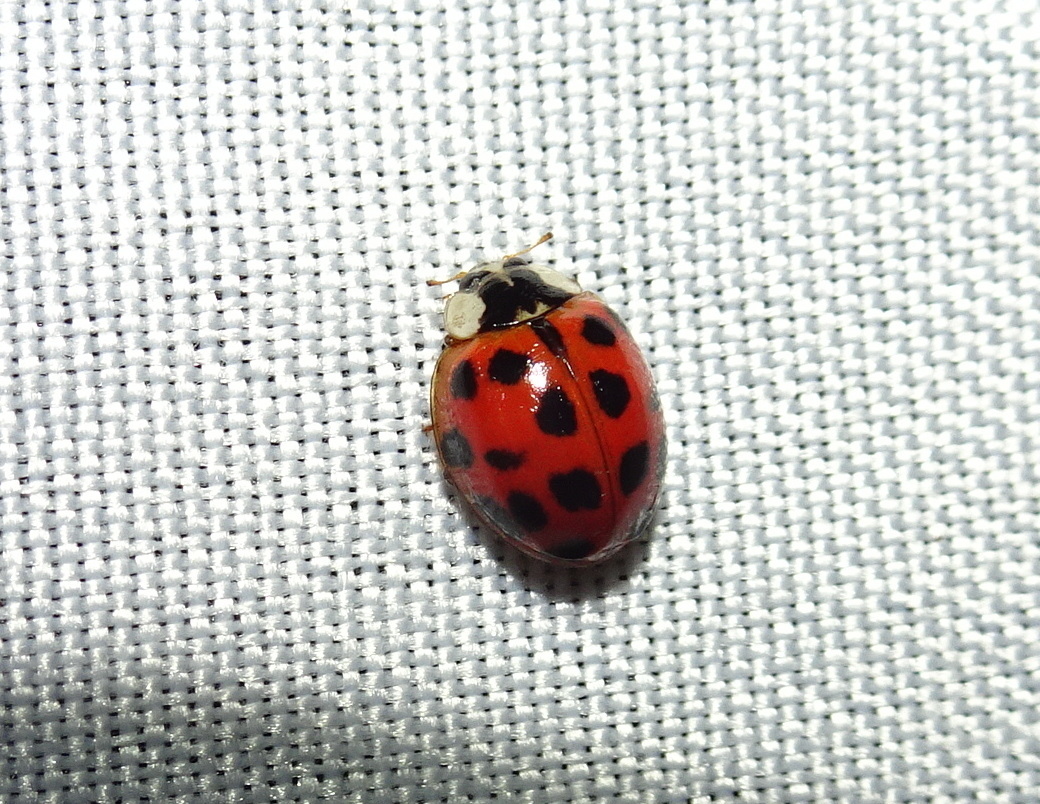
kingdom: Animalia
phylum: Arthropoda
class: Insecta
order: Coleoptera
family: Coccinellidae
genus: Harmonia
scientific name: Harmonia axyridis
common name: Harlequin ladybird
